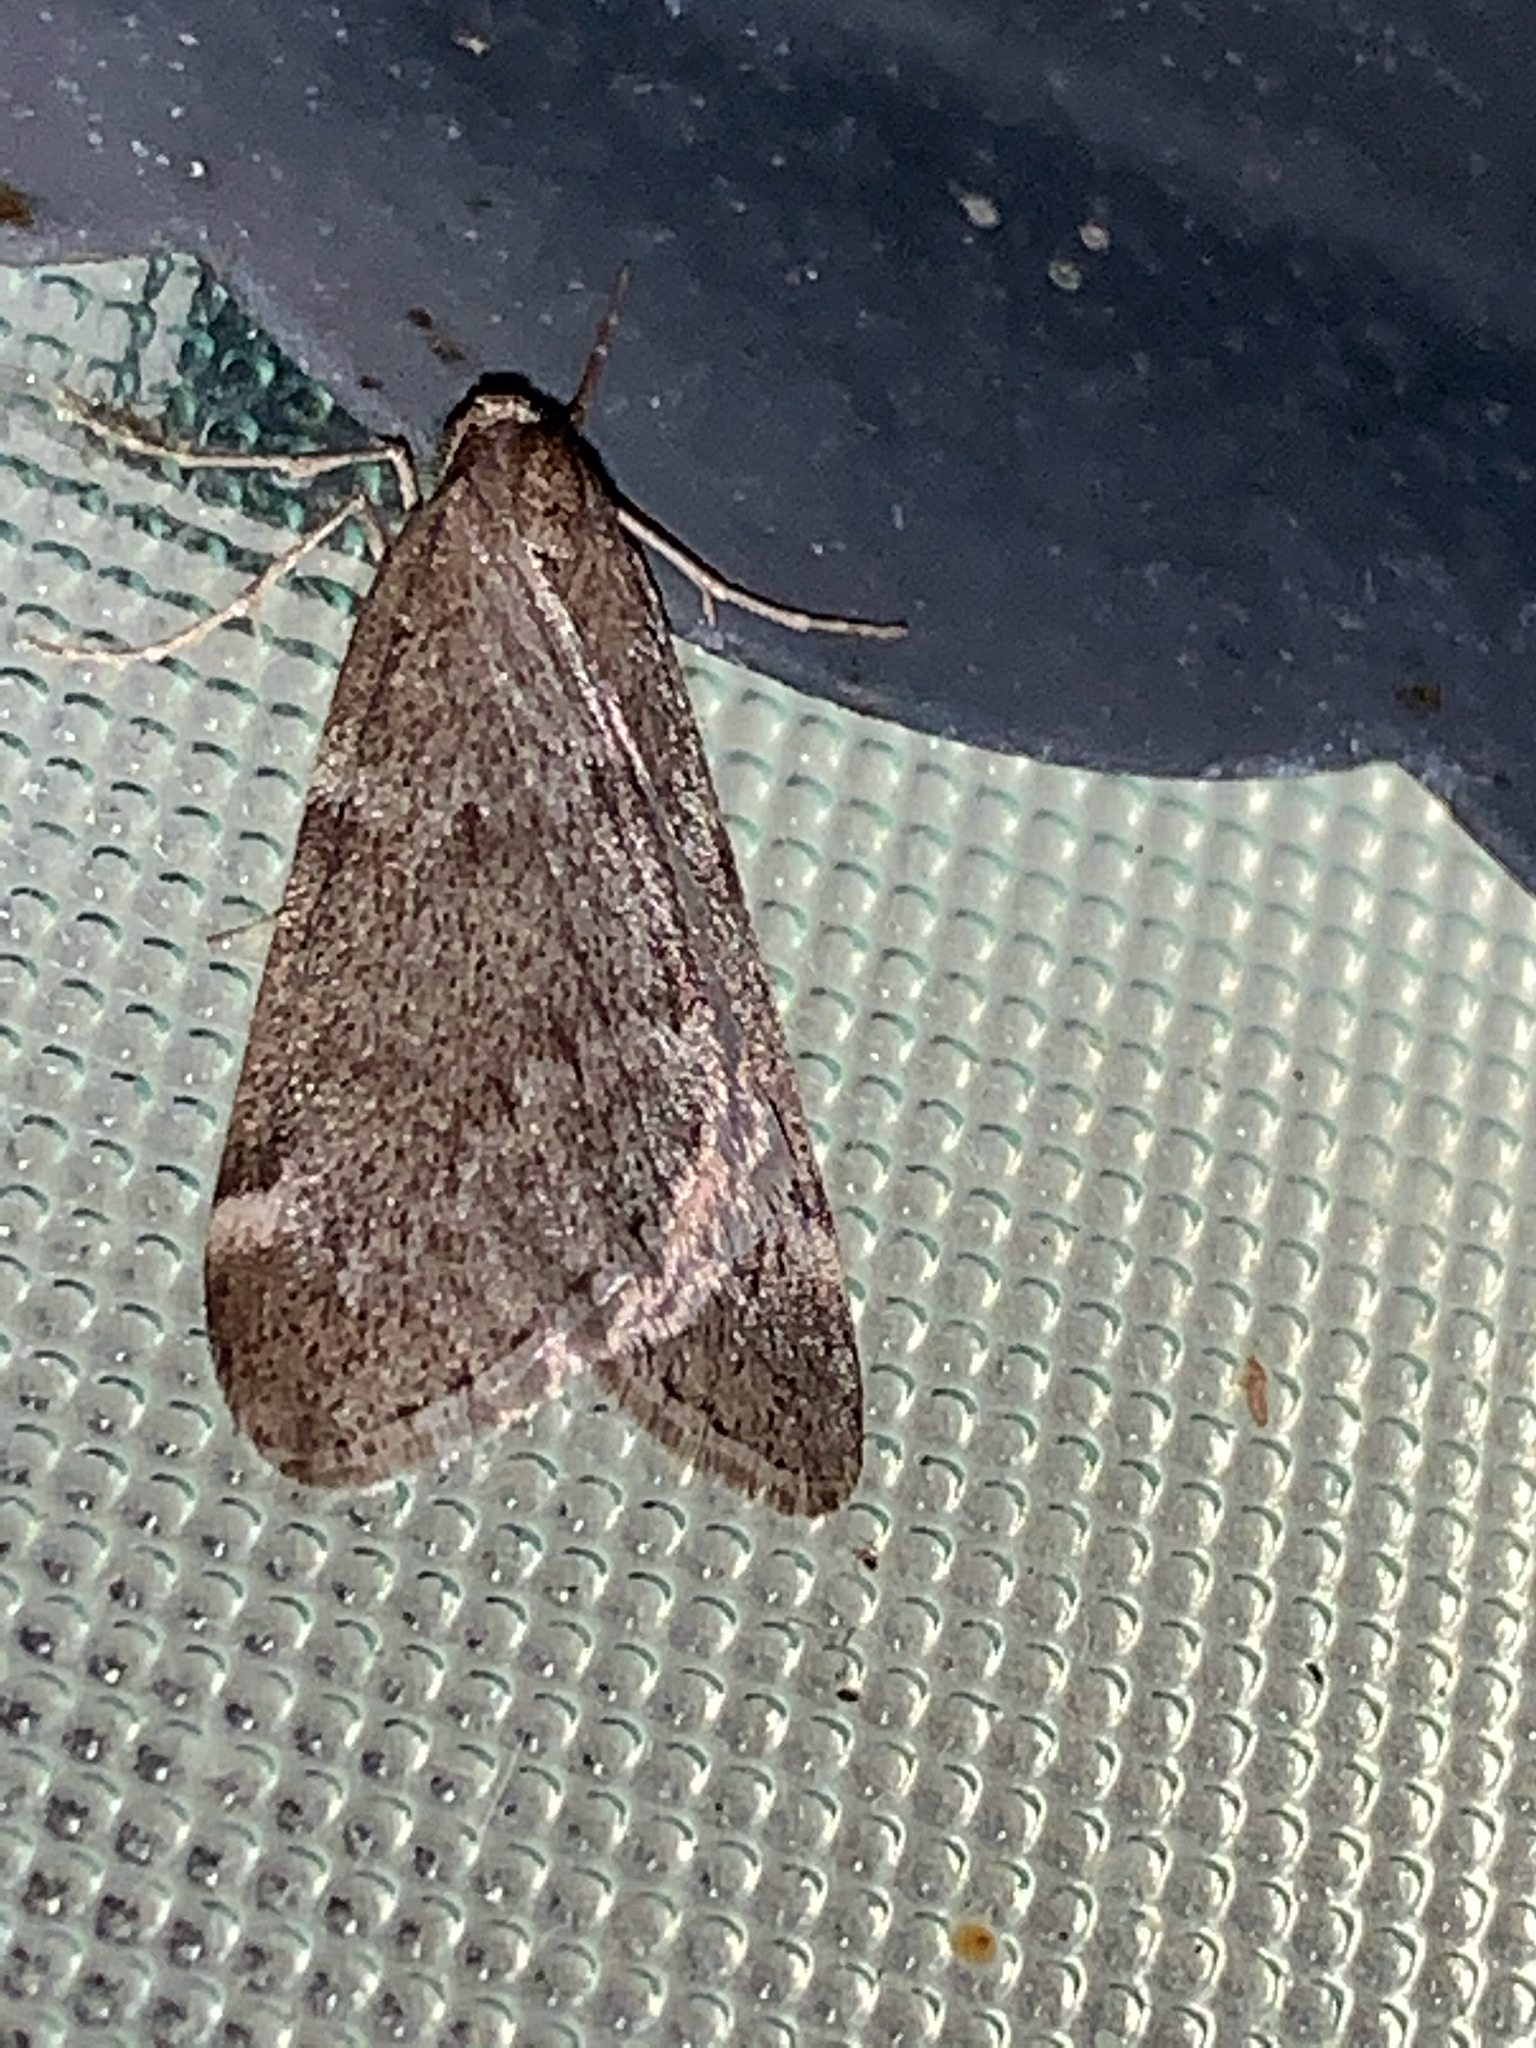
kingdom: Animalia
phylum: Arthropoda
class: Insecta
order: Lepidoptera
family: Geometridae
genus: Alsophila
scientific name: Alsophila pometaria
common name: Fall cankerworm
